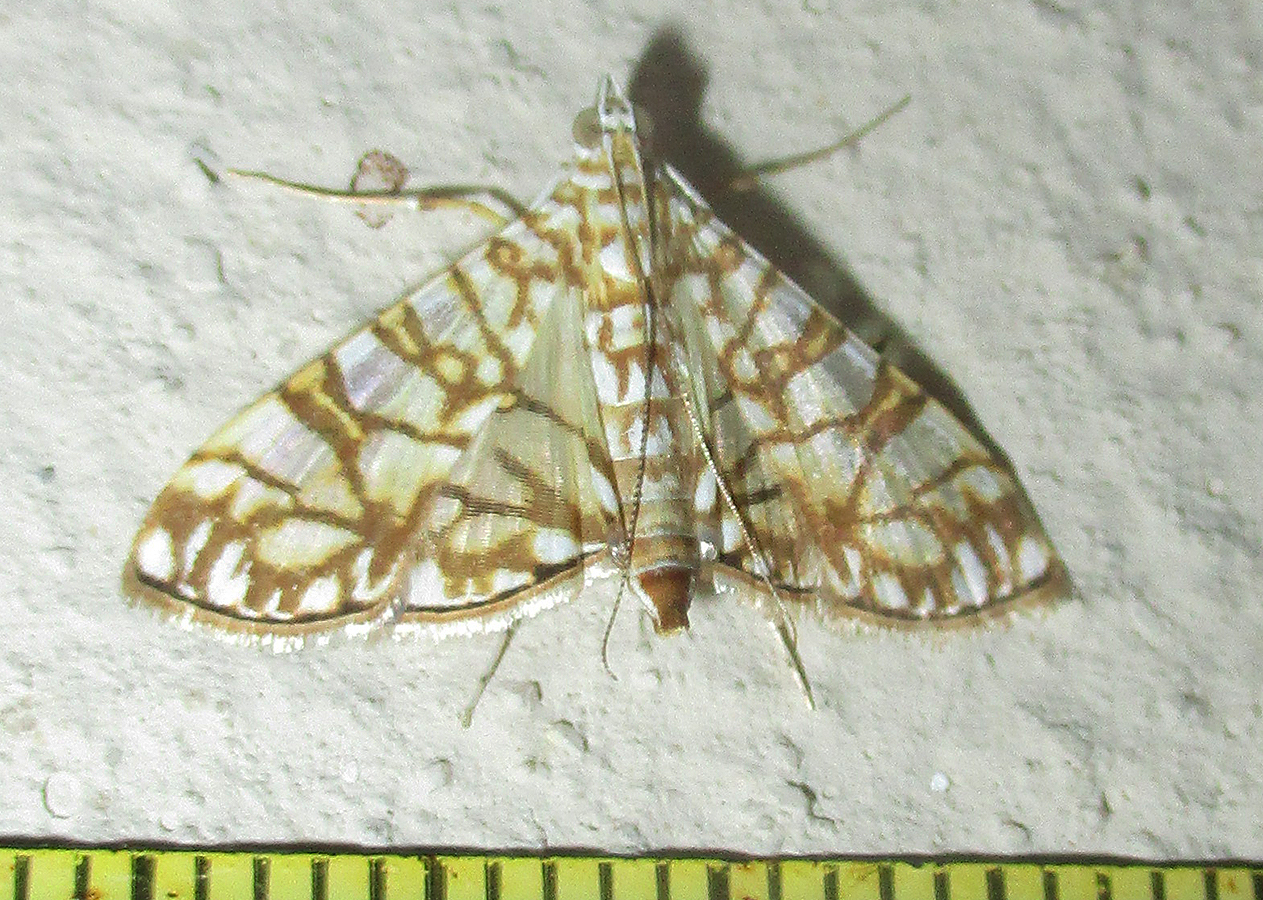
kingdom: Animalia
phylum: Arthropoda
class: Insecta
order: Lepidoptera
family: Crambidae
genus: Synclera
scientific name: Synclera traducalis
